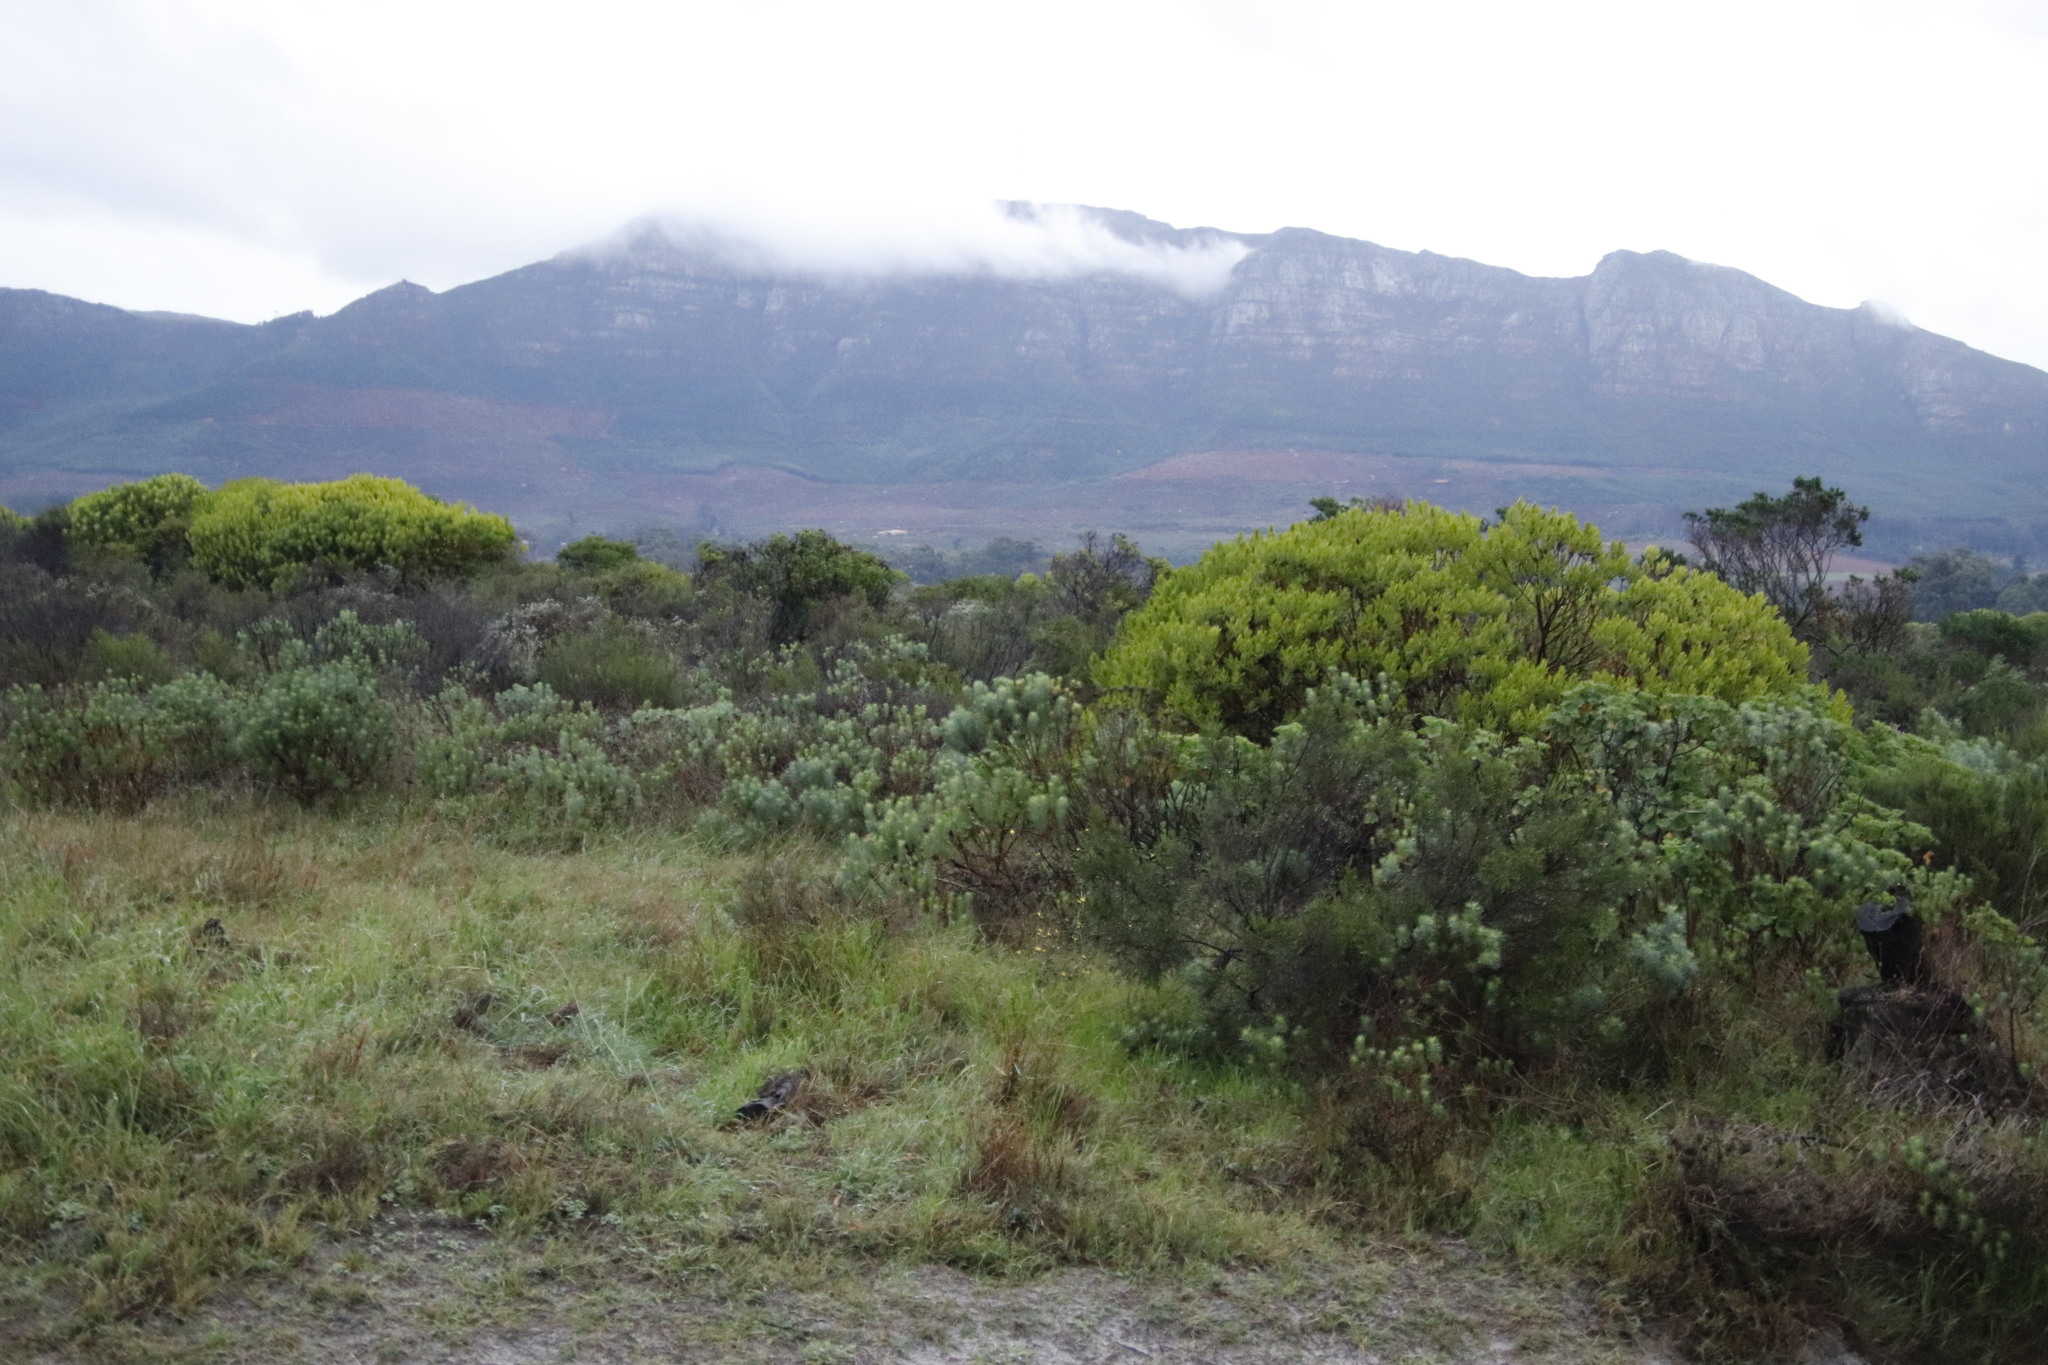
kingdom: Plantae
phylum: Tracheophyta
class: Magnoliopsida
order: Asterales
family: Asteraceae
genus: Athanasia
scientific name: Athanasia crithmifolia
